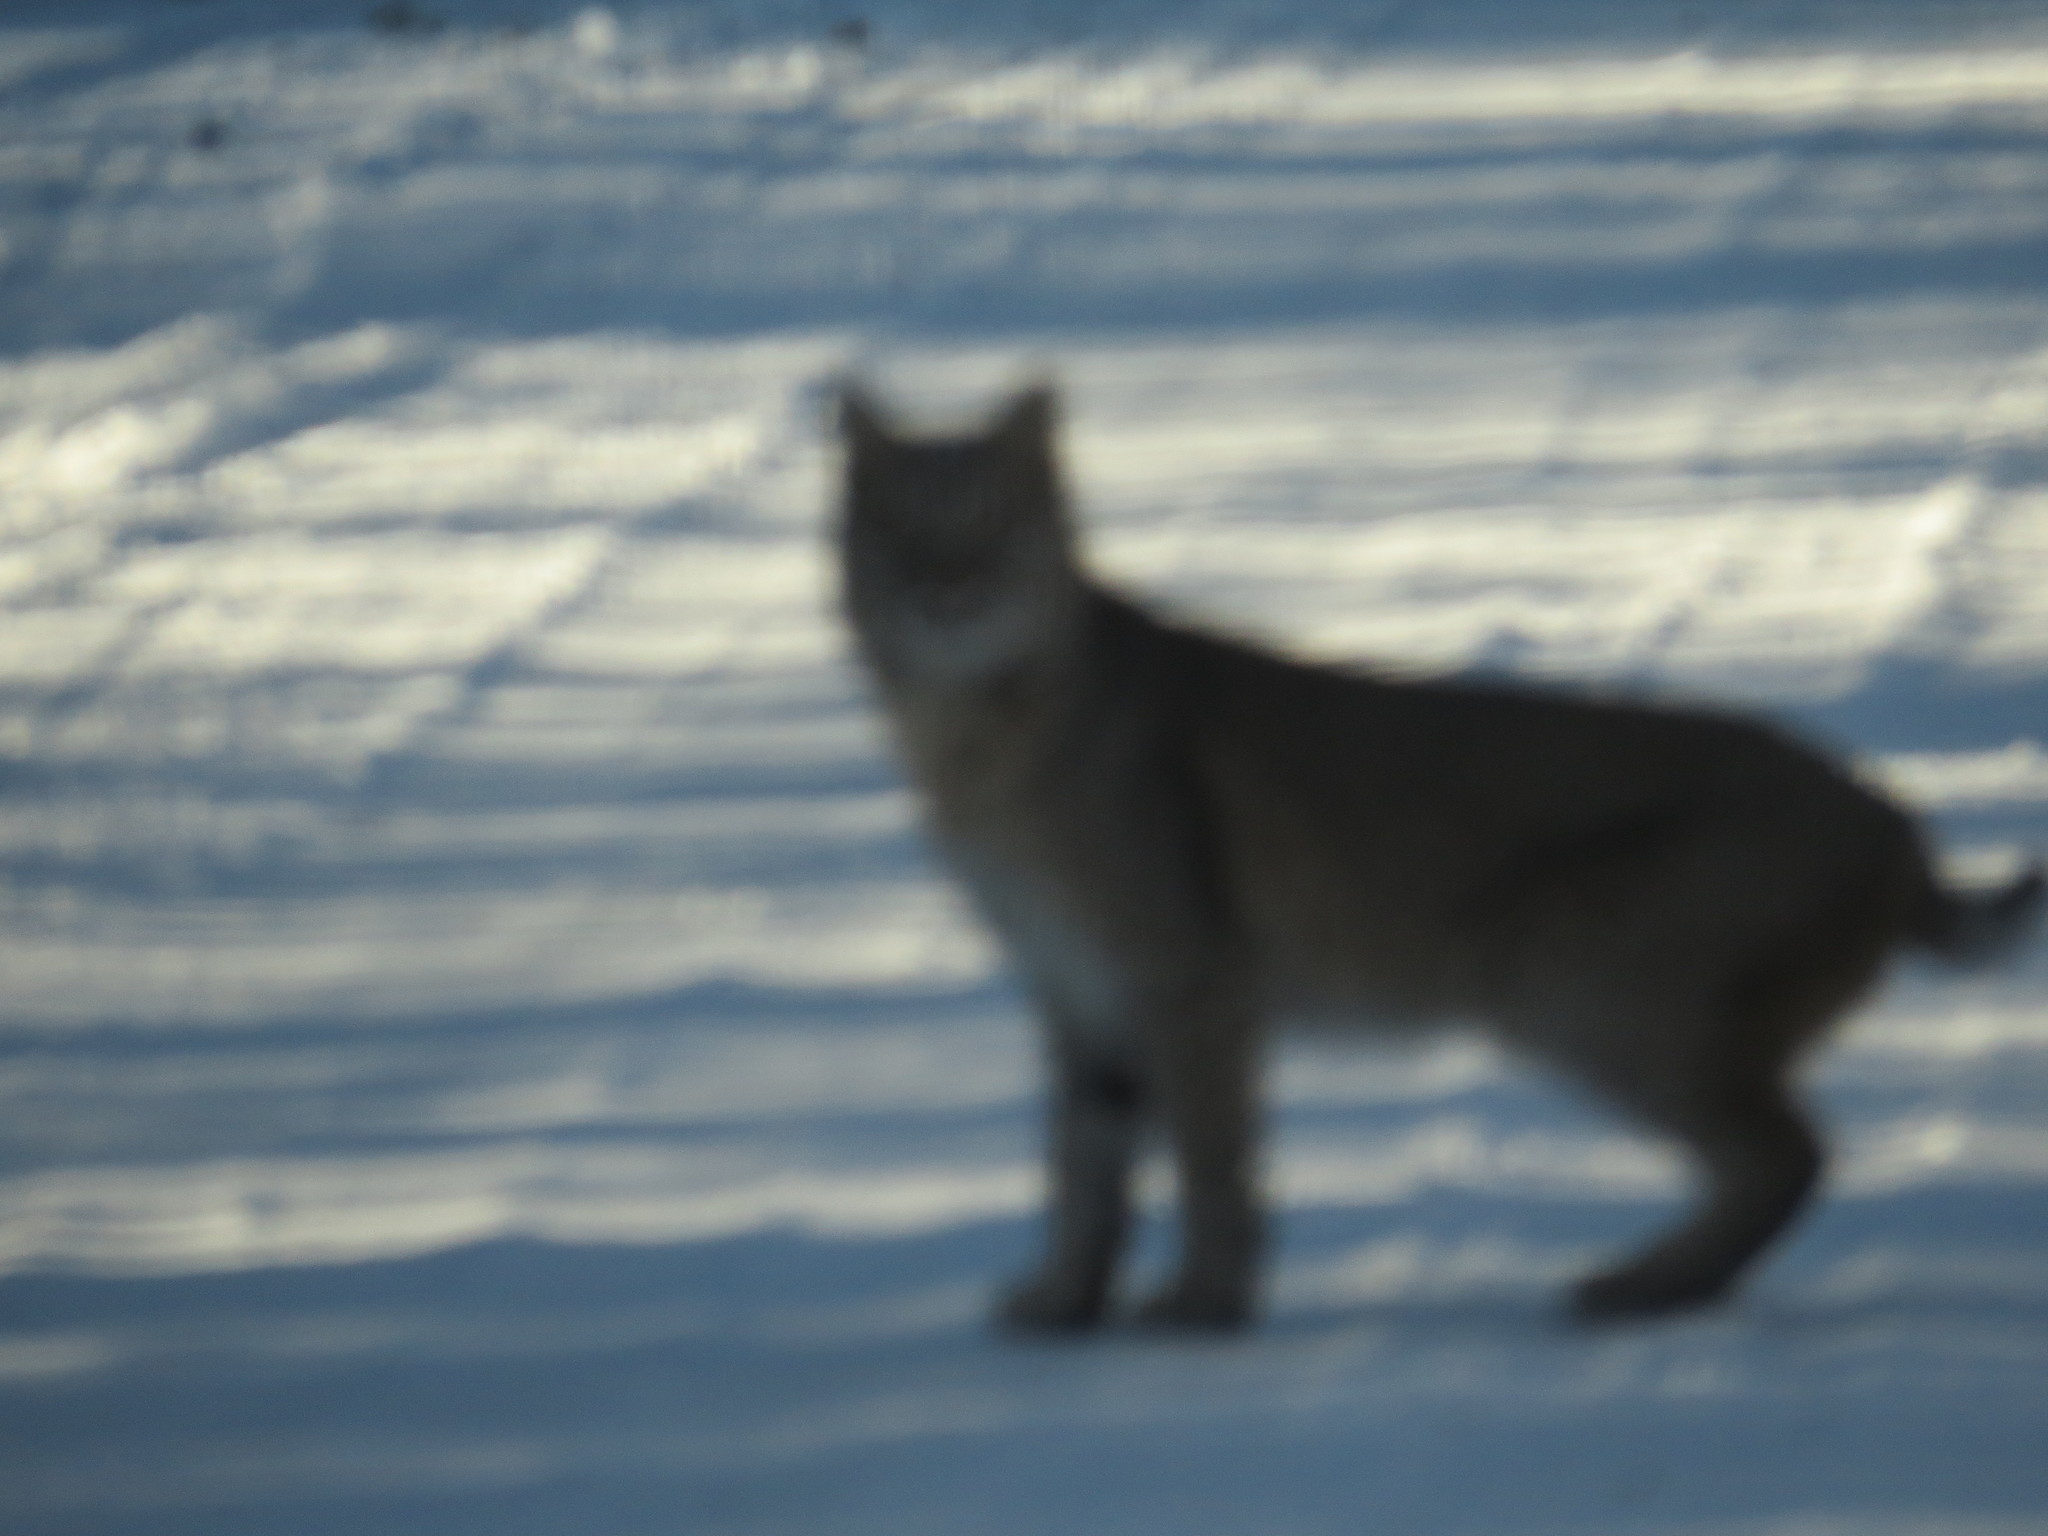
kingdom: Animalia
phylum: Chordata
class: Mammalia
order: Carnivora
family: Felidae
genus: Lynx
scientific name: Lynx rufus
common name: Bobcat
